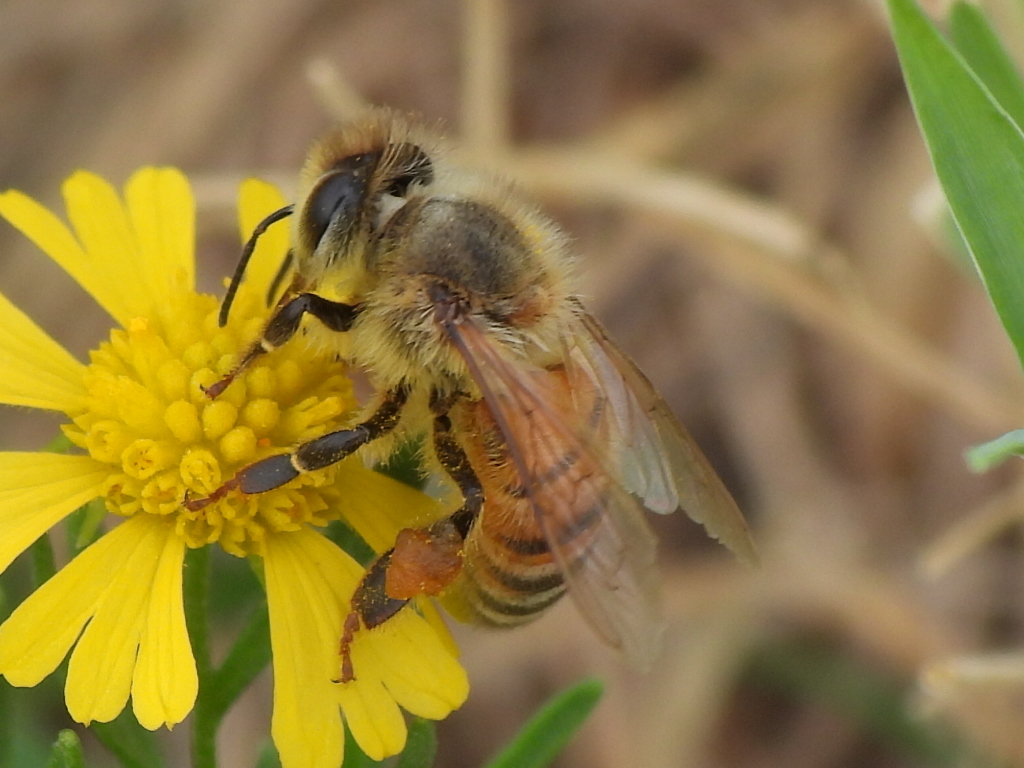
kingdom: Animalia
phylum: Arthropoda
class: Insecta
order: Hymenoptera
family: Apidae
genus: Apis
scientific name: Apis mellifera
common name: Honey bee
